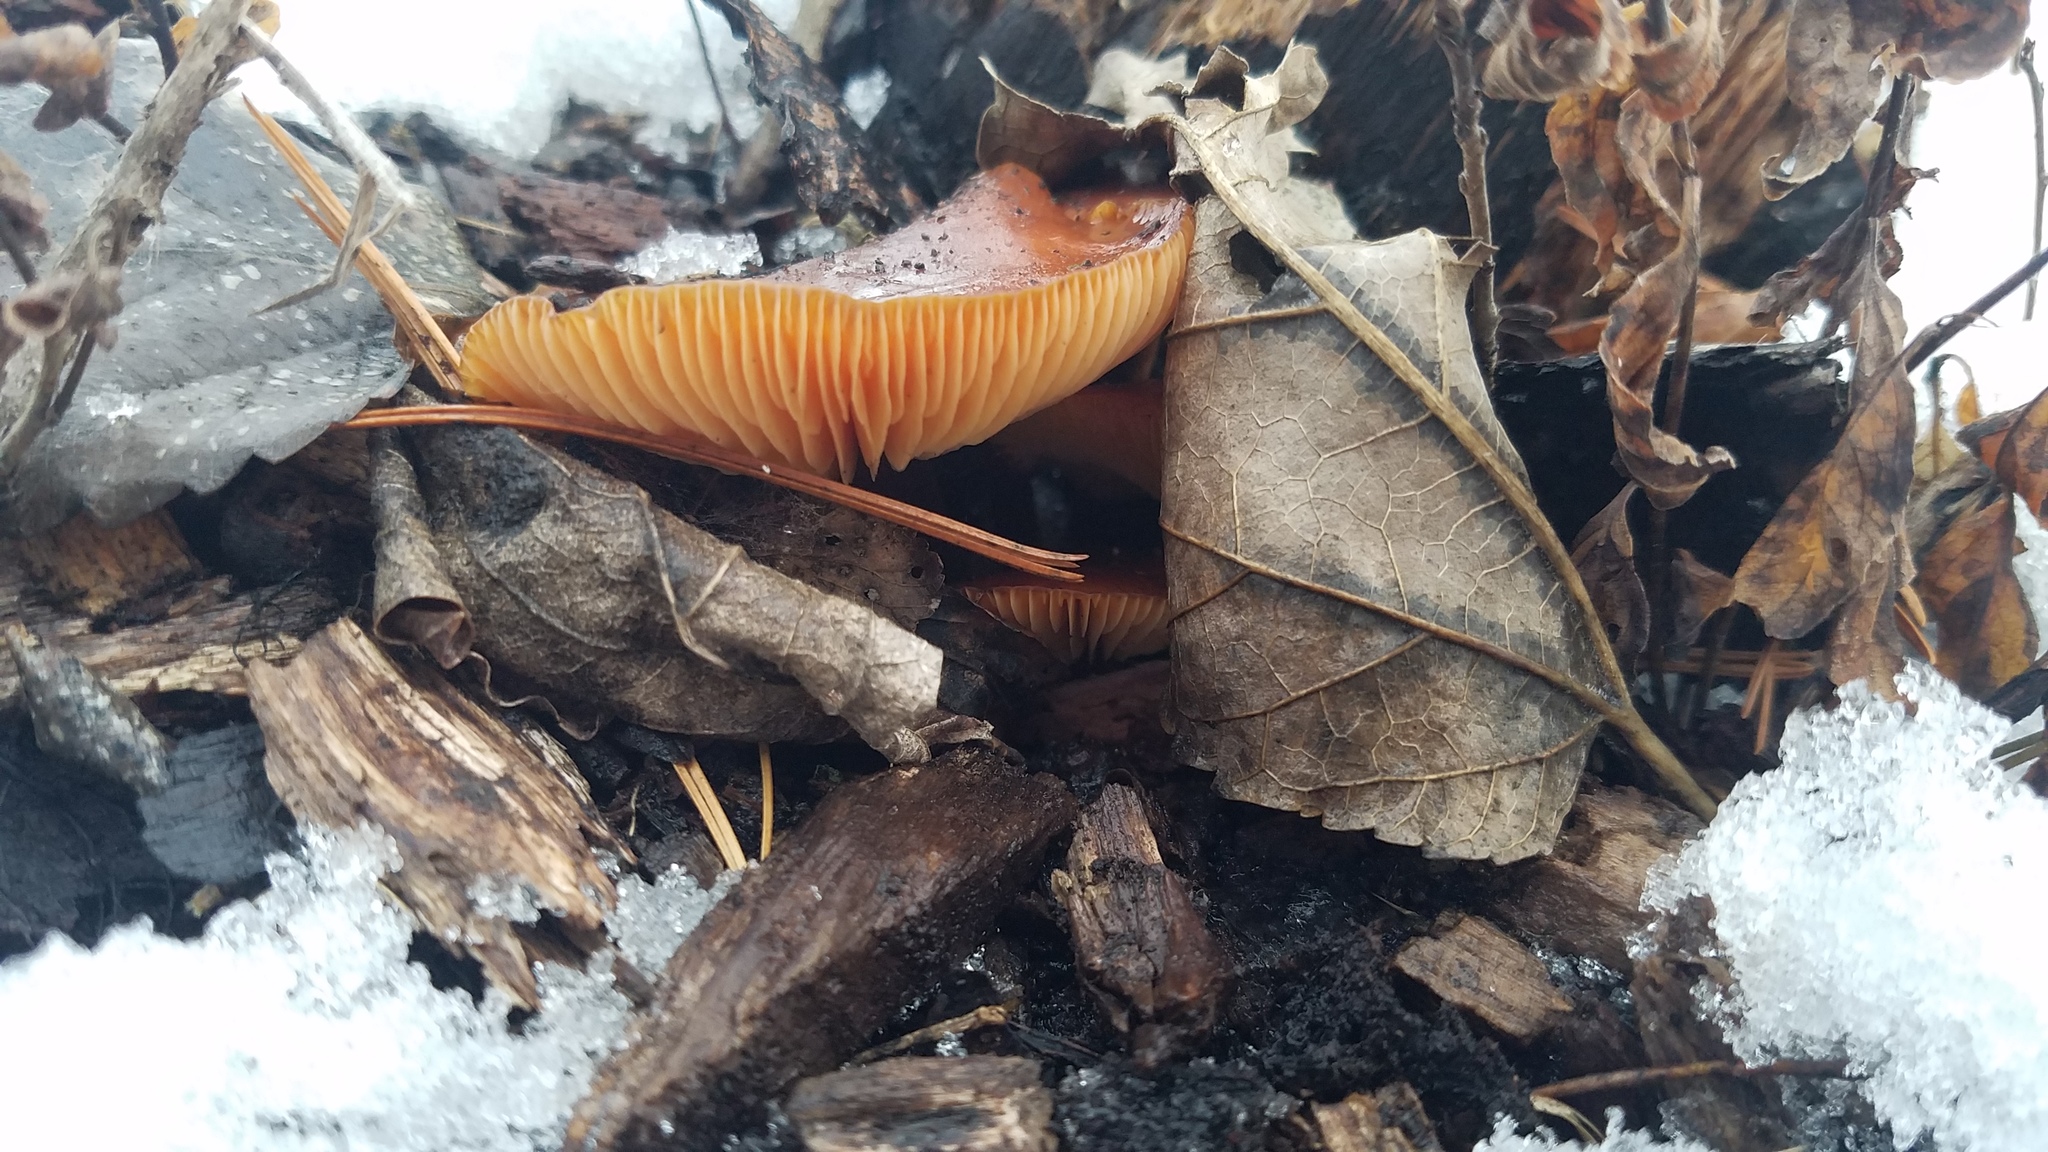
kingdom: Fungi
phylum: Basidiomycota
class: Agaricomycetes
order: Agaricales
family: Physalacriaceae
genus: Flammulina
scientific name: Flammulina velutipes
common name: Velvet shank
